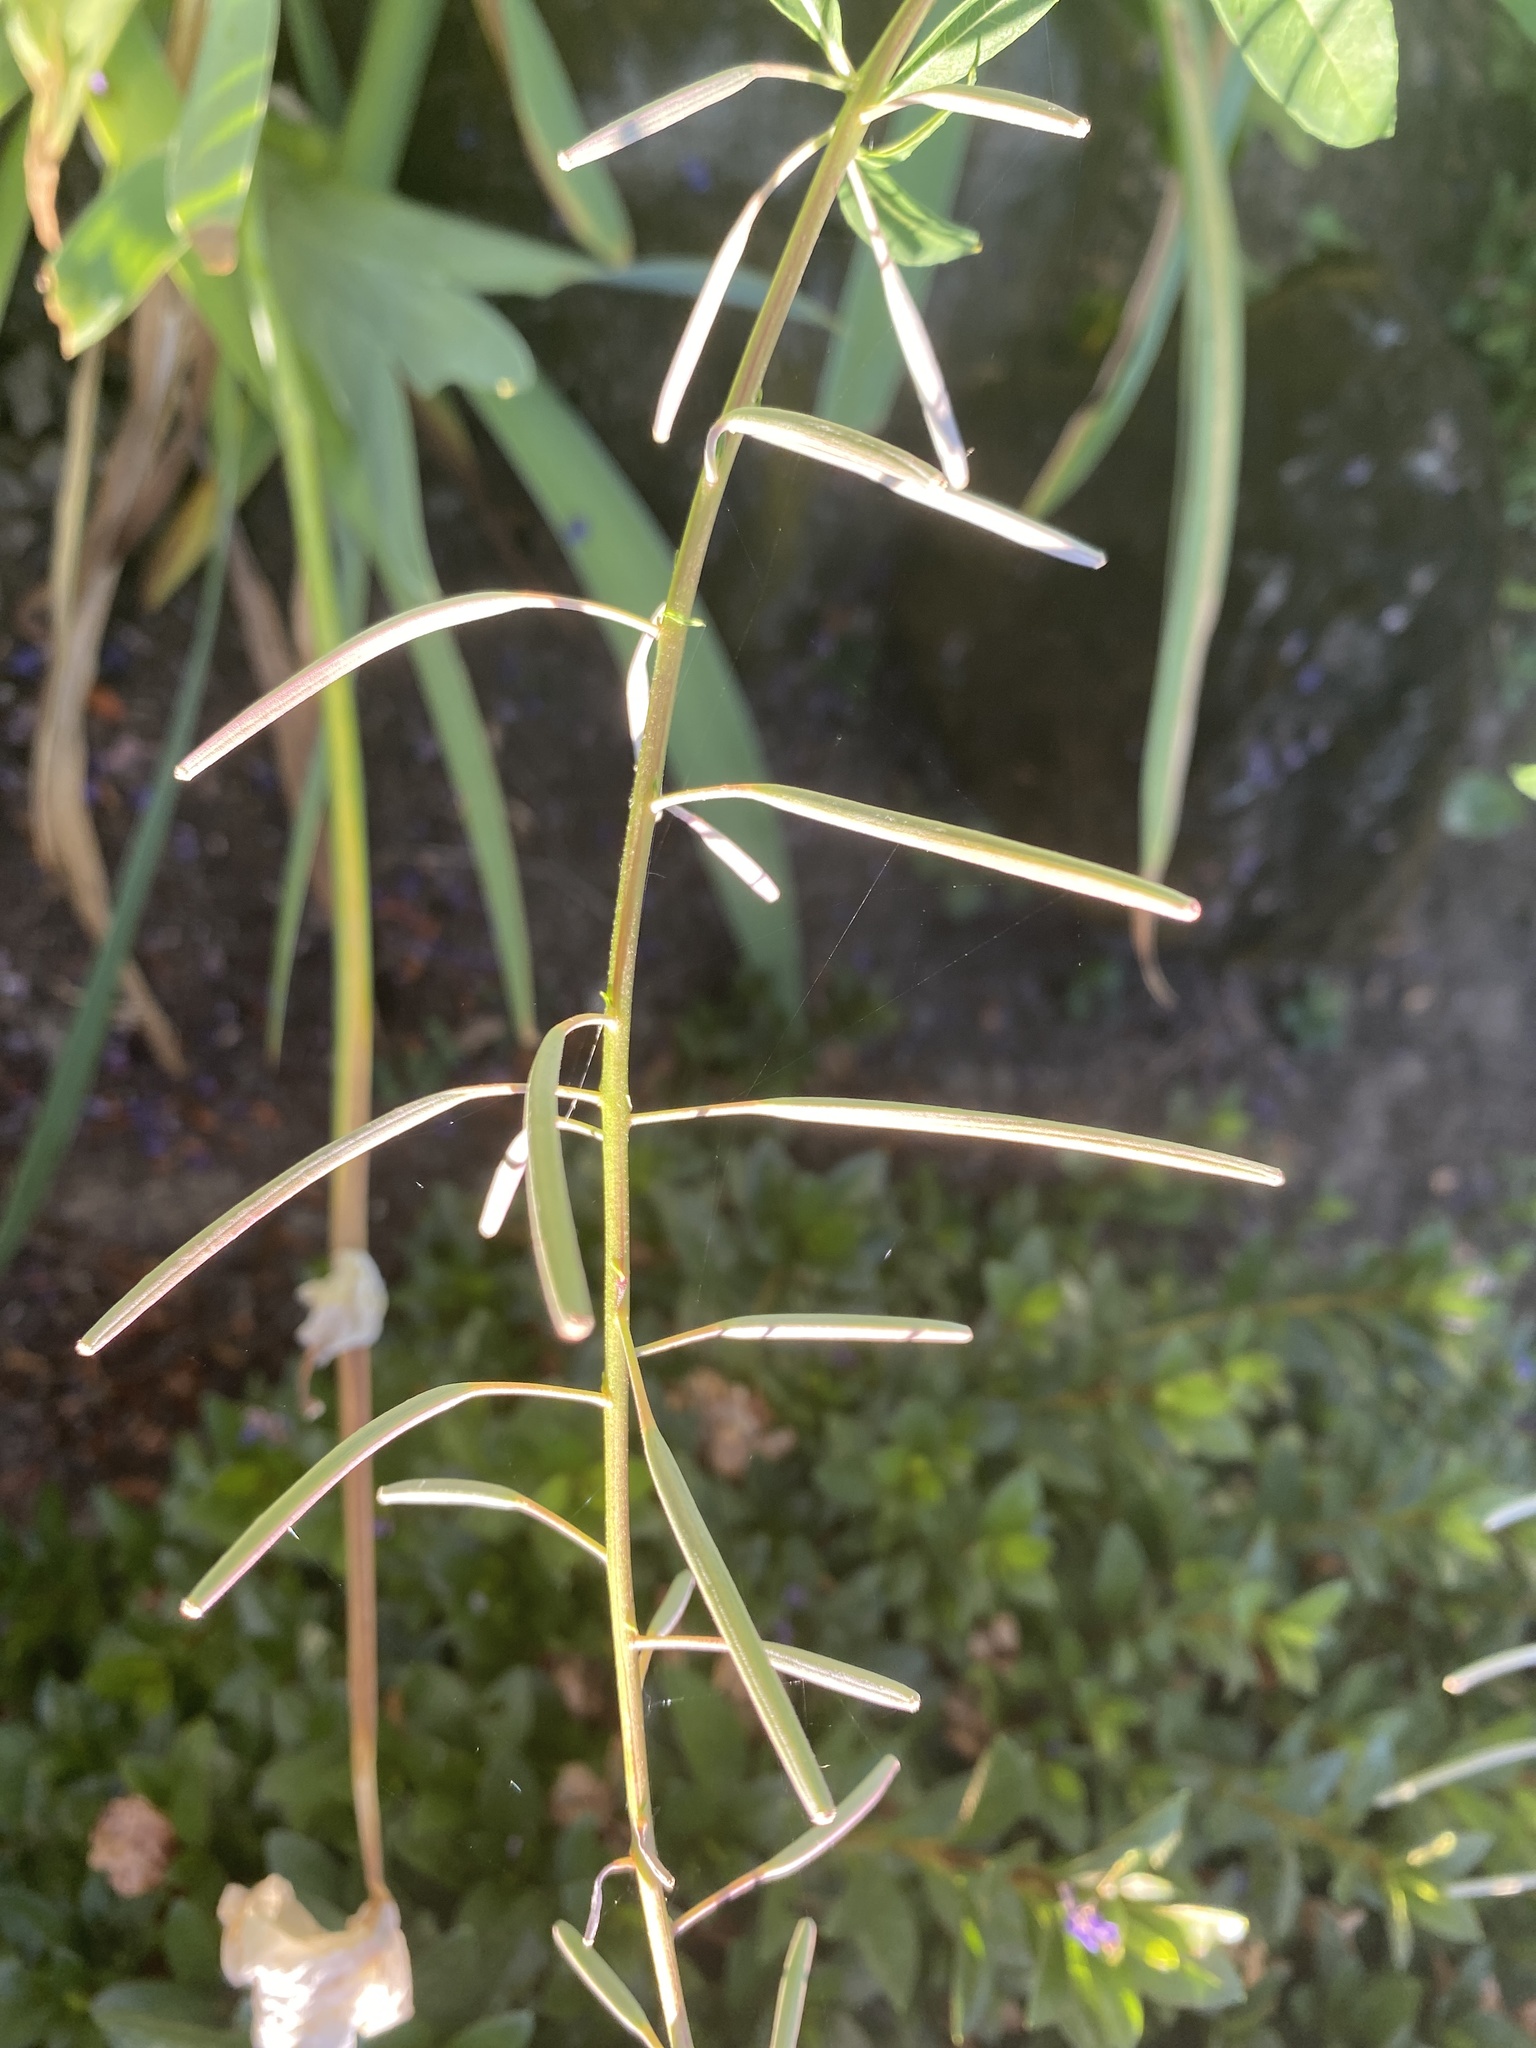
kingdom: Plantae
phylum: Tracheophyta
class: Magnoliopsida
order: Myrtales
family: Onagraceae
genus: Chamaenerion
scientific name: Chamaenerion angustifolium
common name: Fireweed
